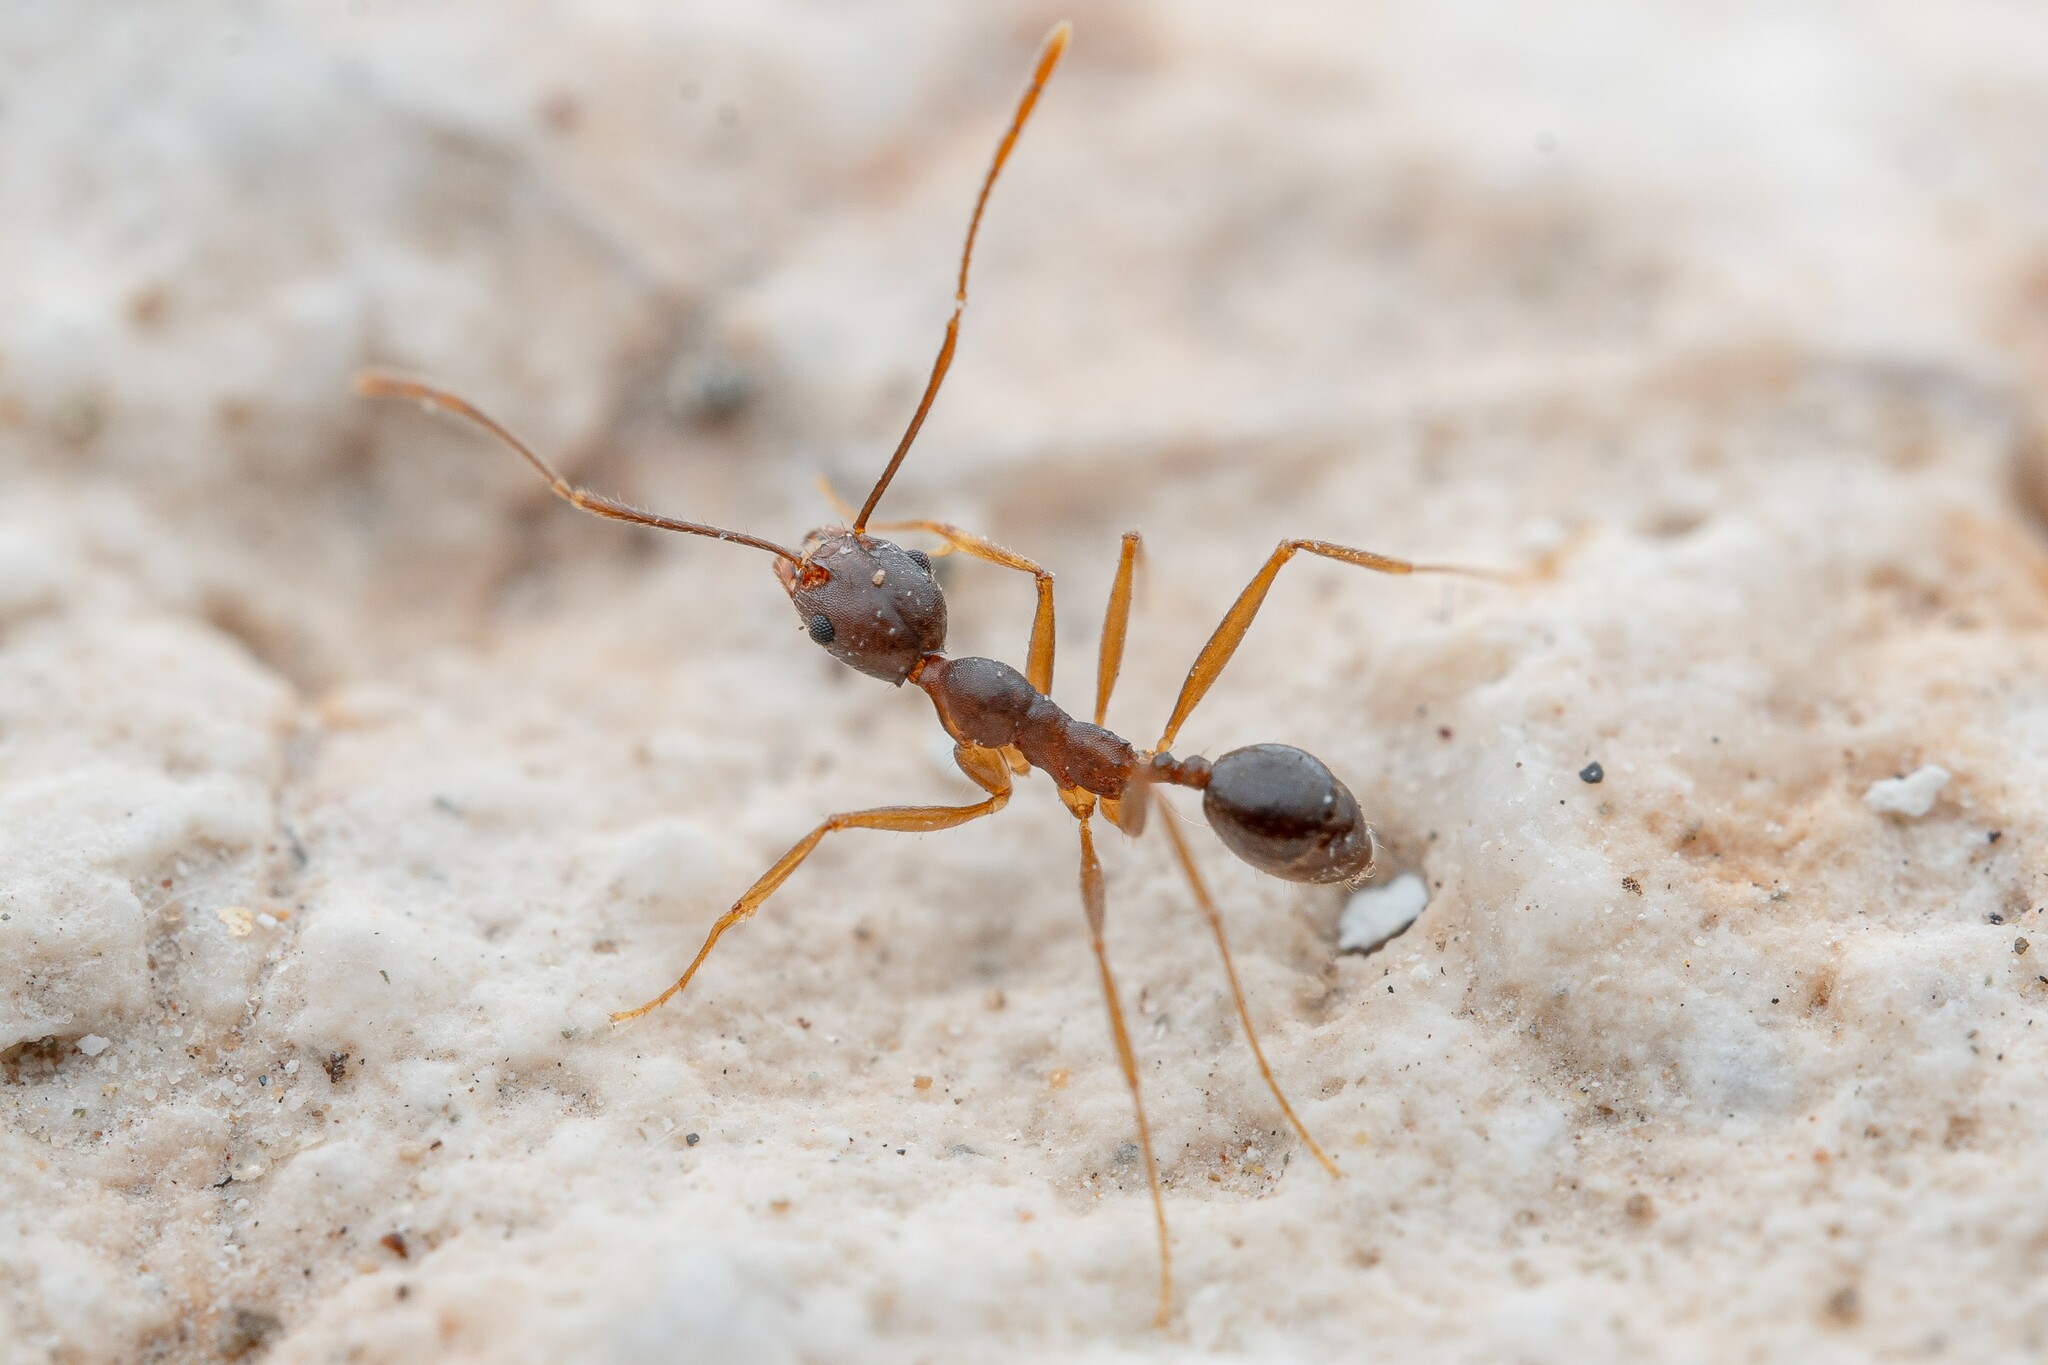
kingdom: Animalia
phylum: Arthropoda
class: Insecta
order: Hymenoptera
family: Formicidae
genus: Pheidole
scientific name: Pheidole portalensis
